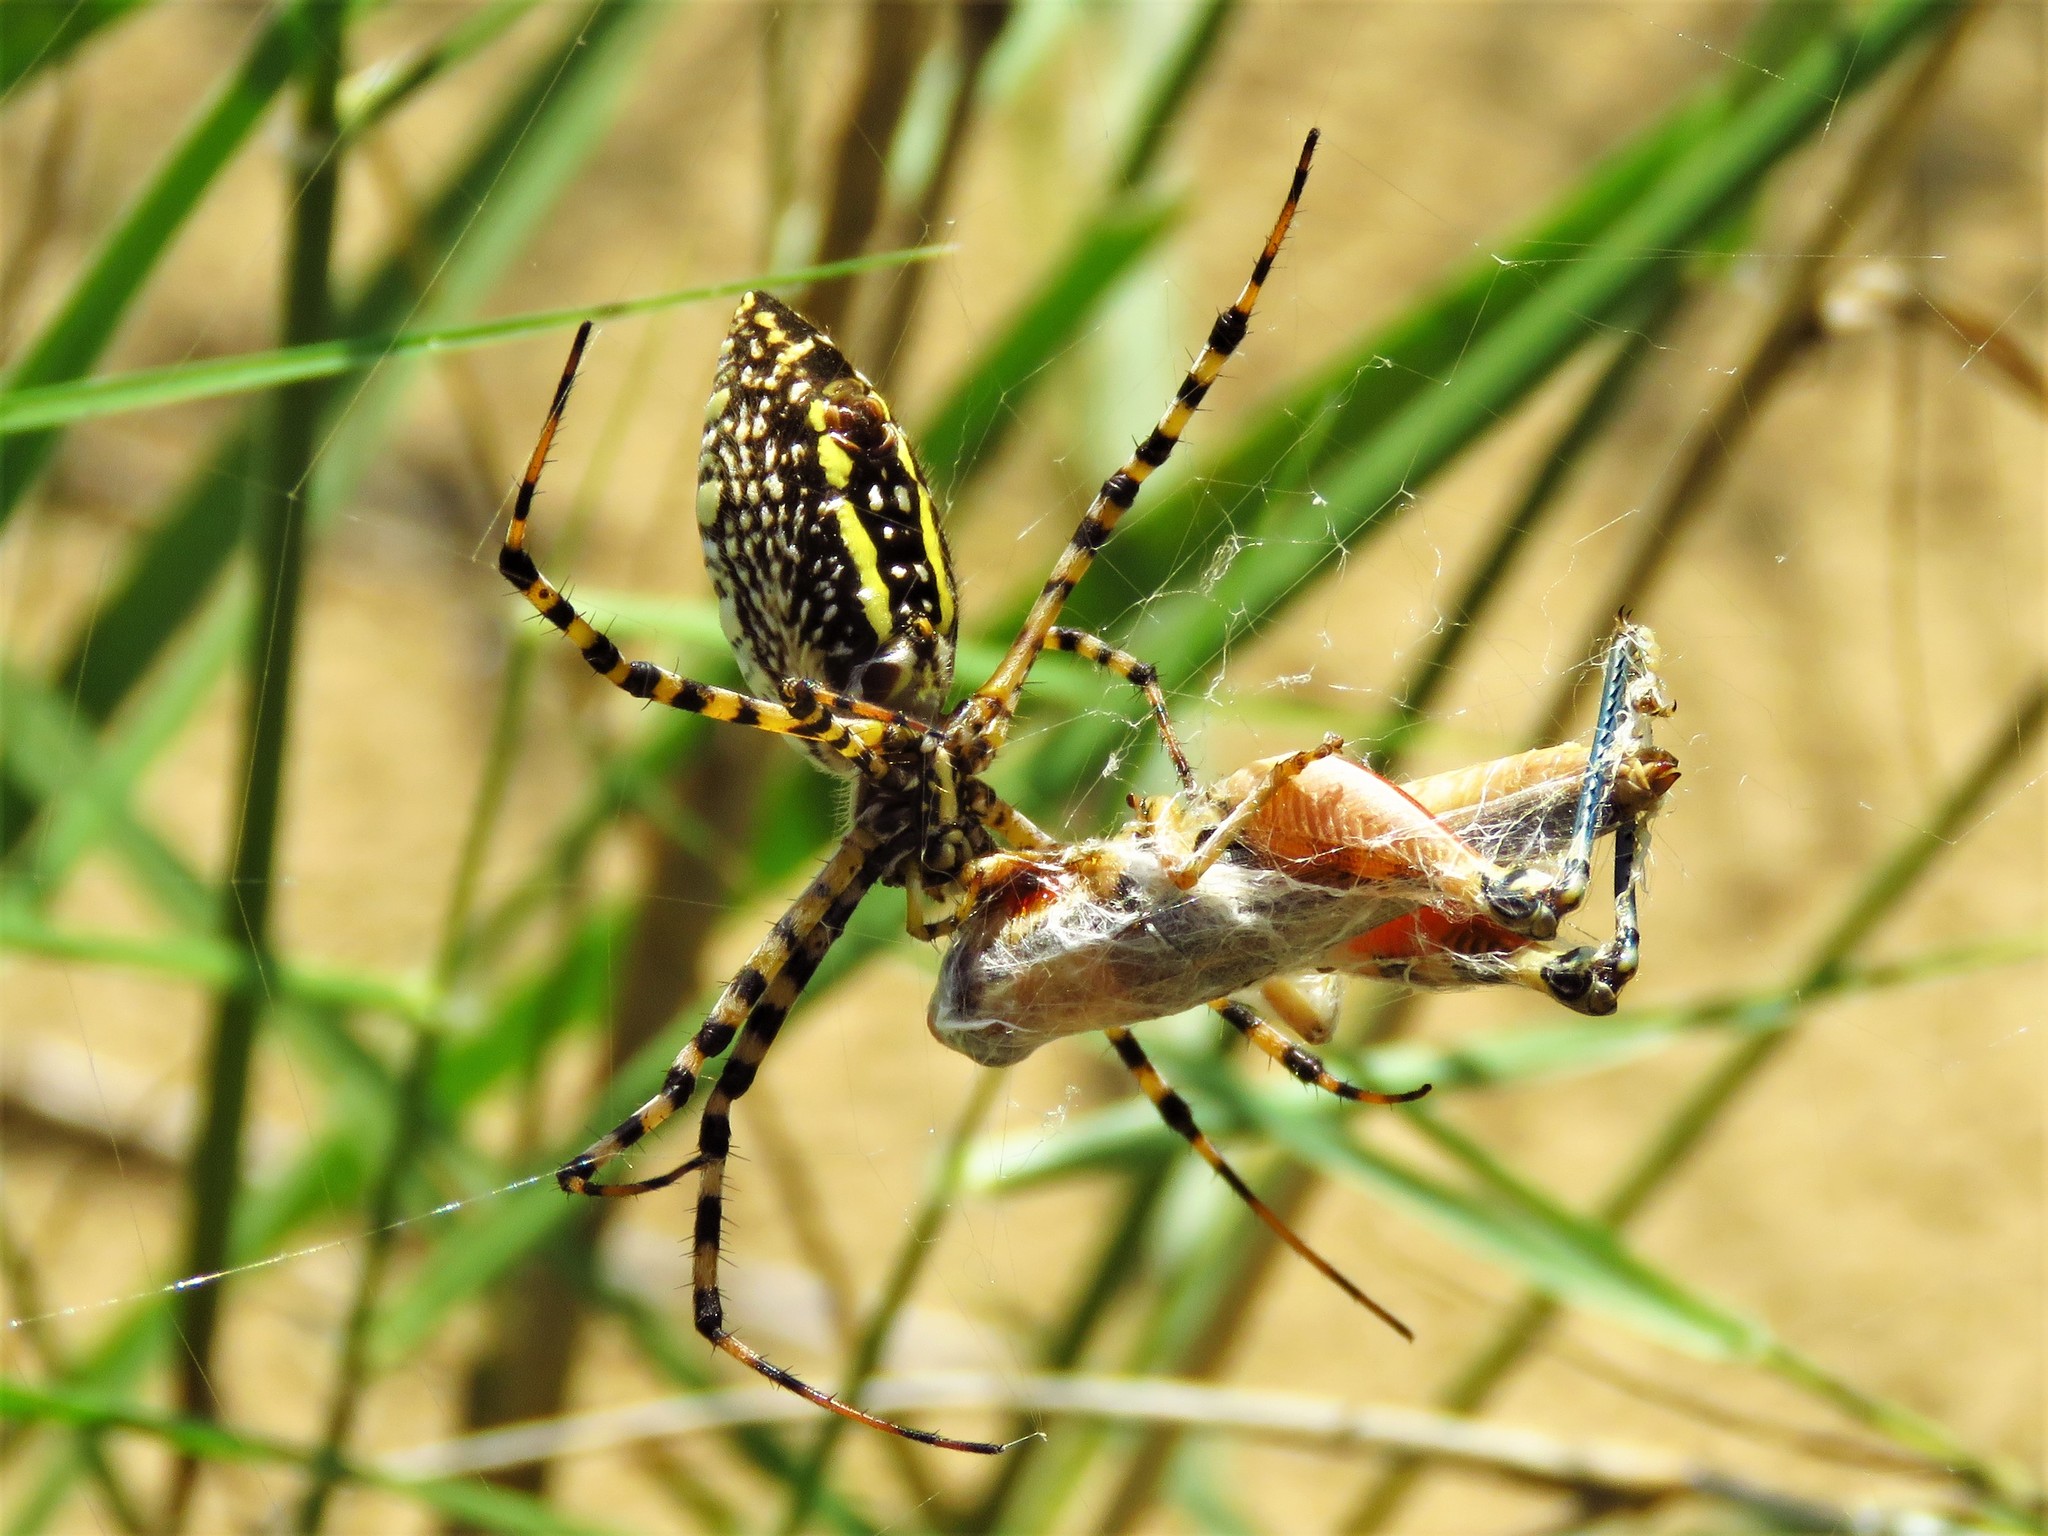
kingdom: Animalia
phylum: Arthropoda
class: Arachnida
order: Araneae
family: Araneidae
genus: Argiope
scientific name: Argiope trifasciata
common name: Banded garden spider
